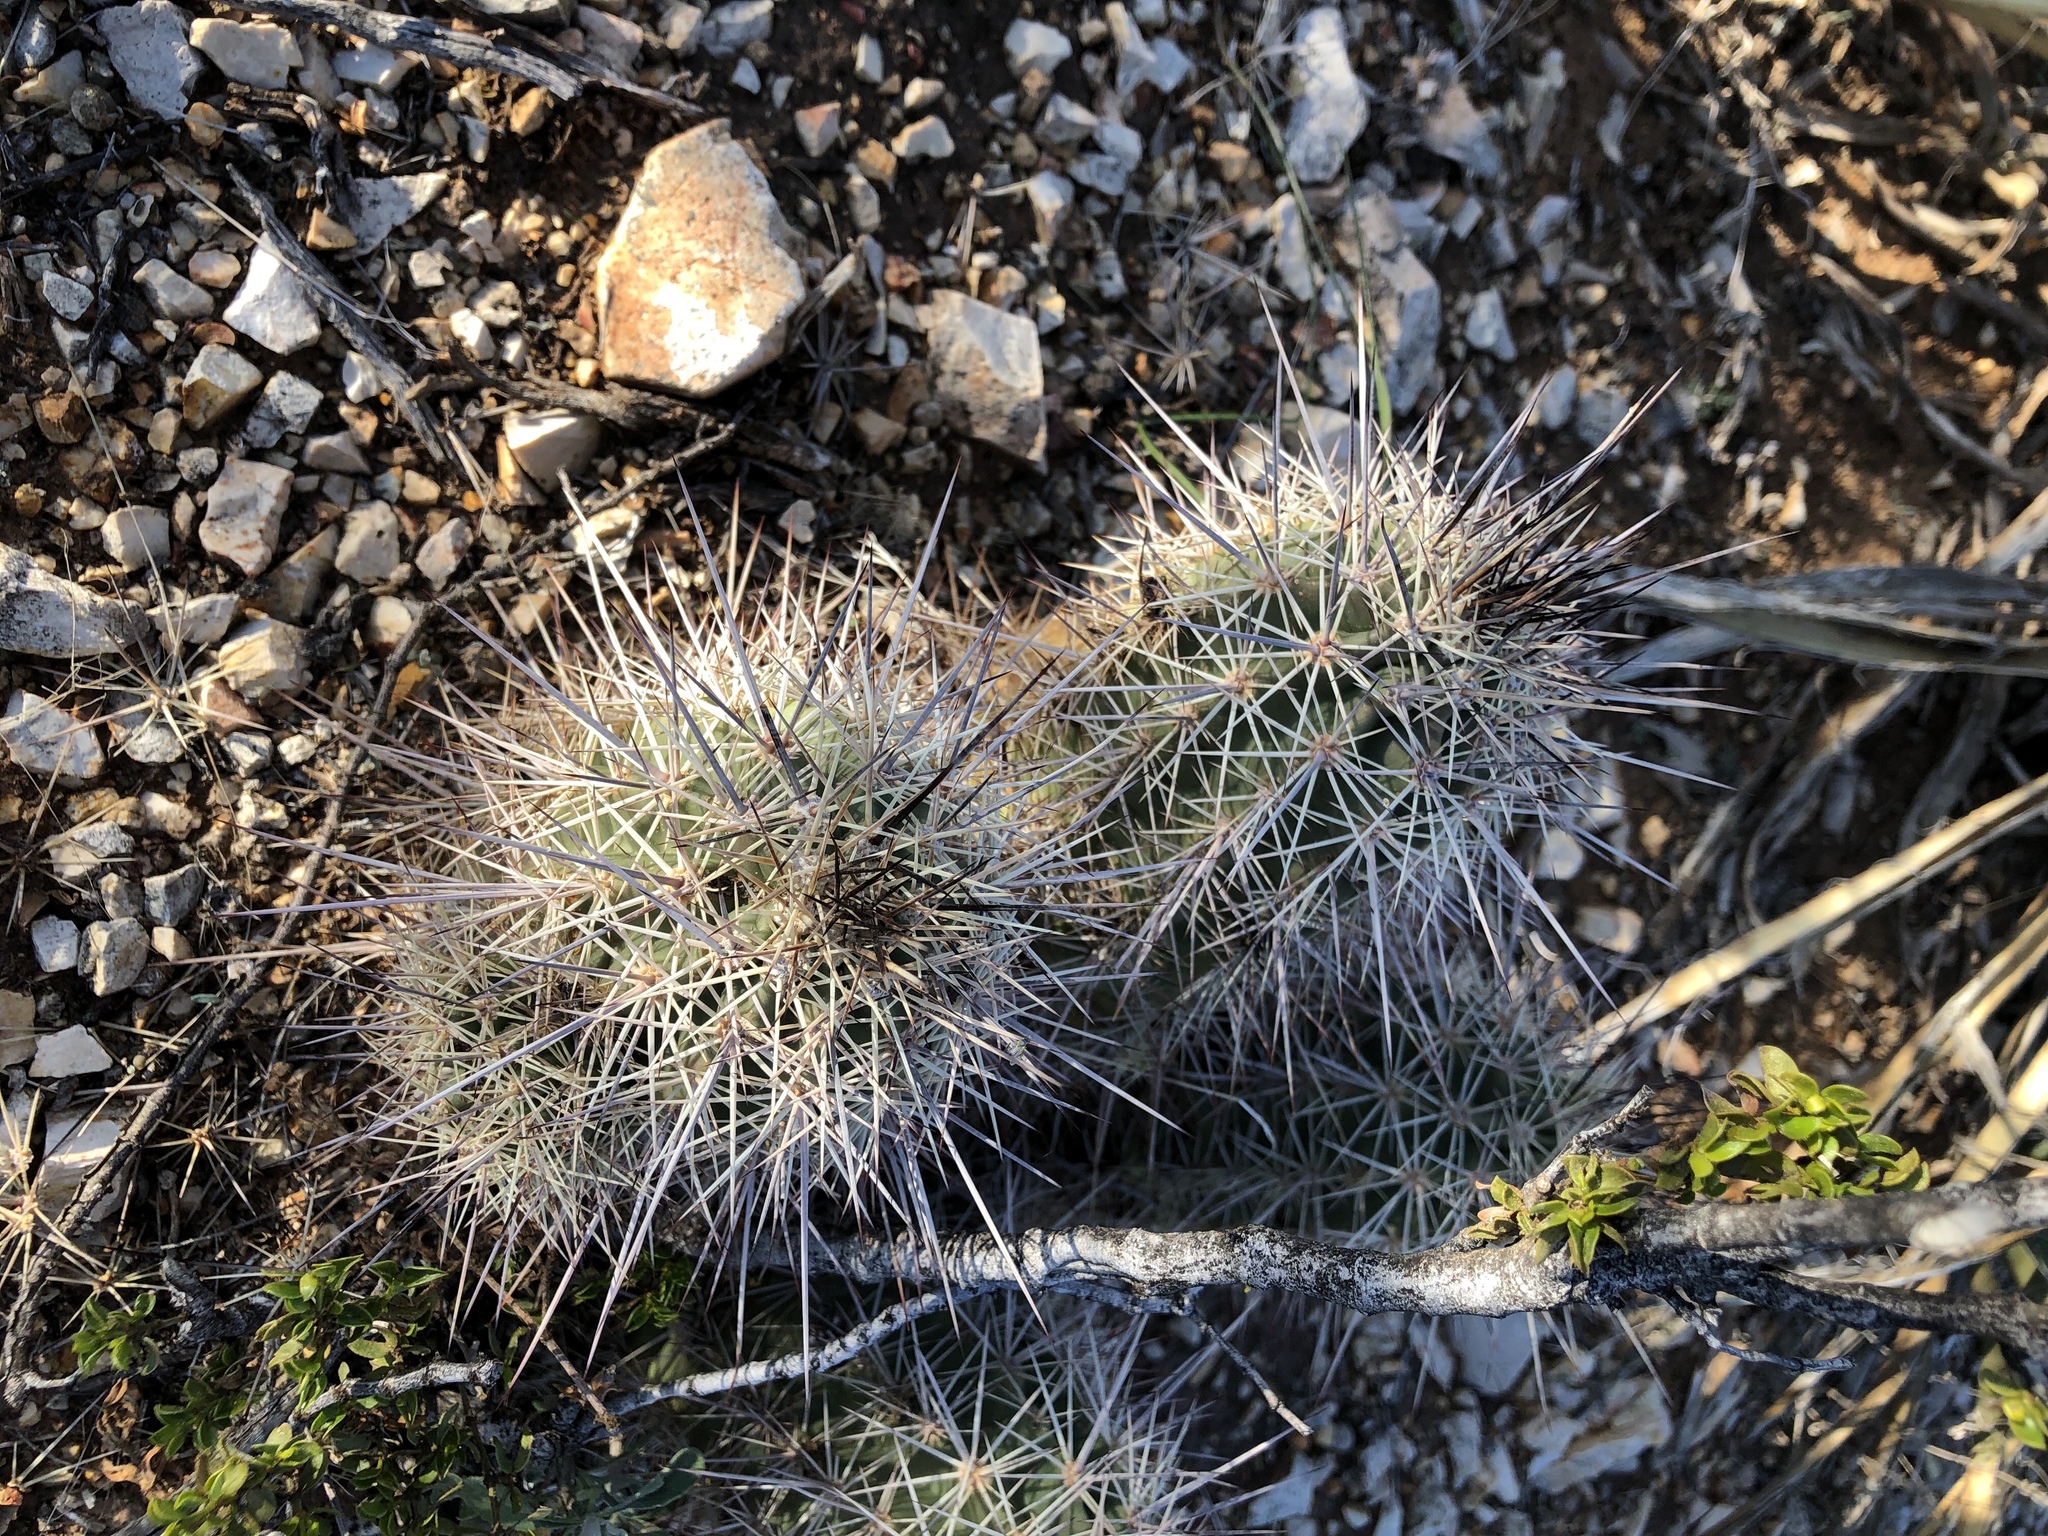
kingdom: Plantae
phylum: Tracheophyta
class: Magnoliopsida
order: Caryophyllales
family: Cactaceae
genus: Echinocereus
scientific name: Echinocereus coccineus
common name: Scarlet hedgehog cactus
